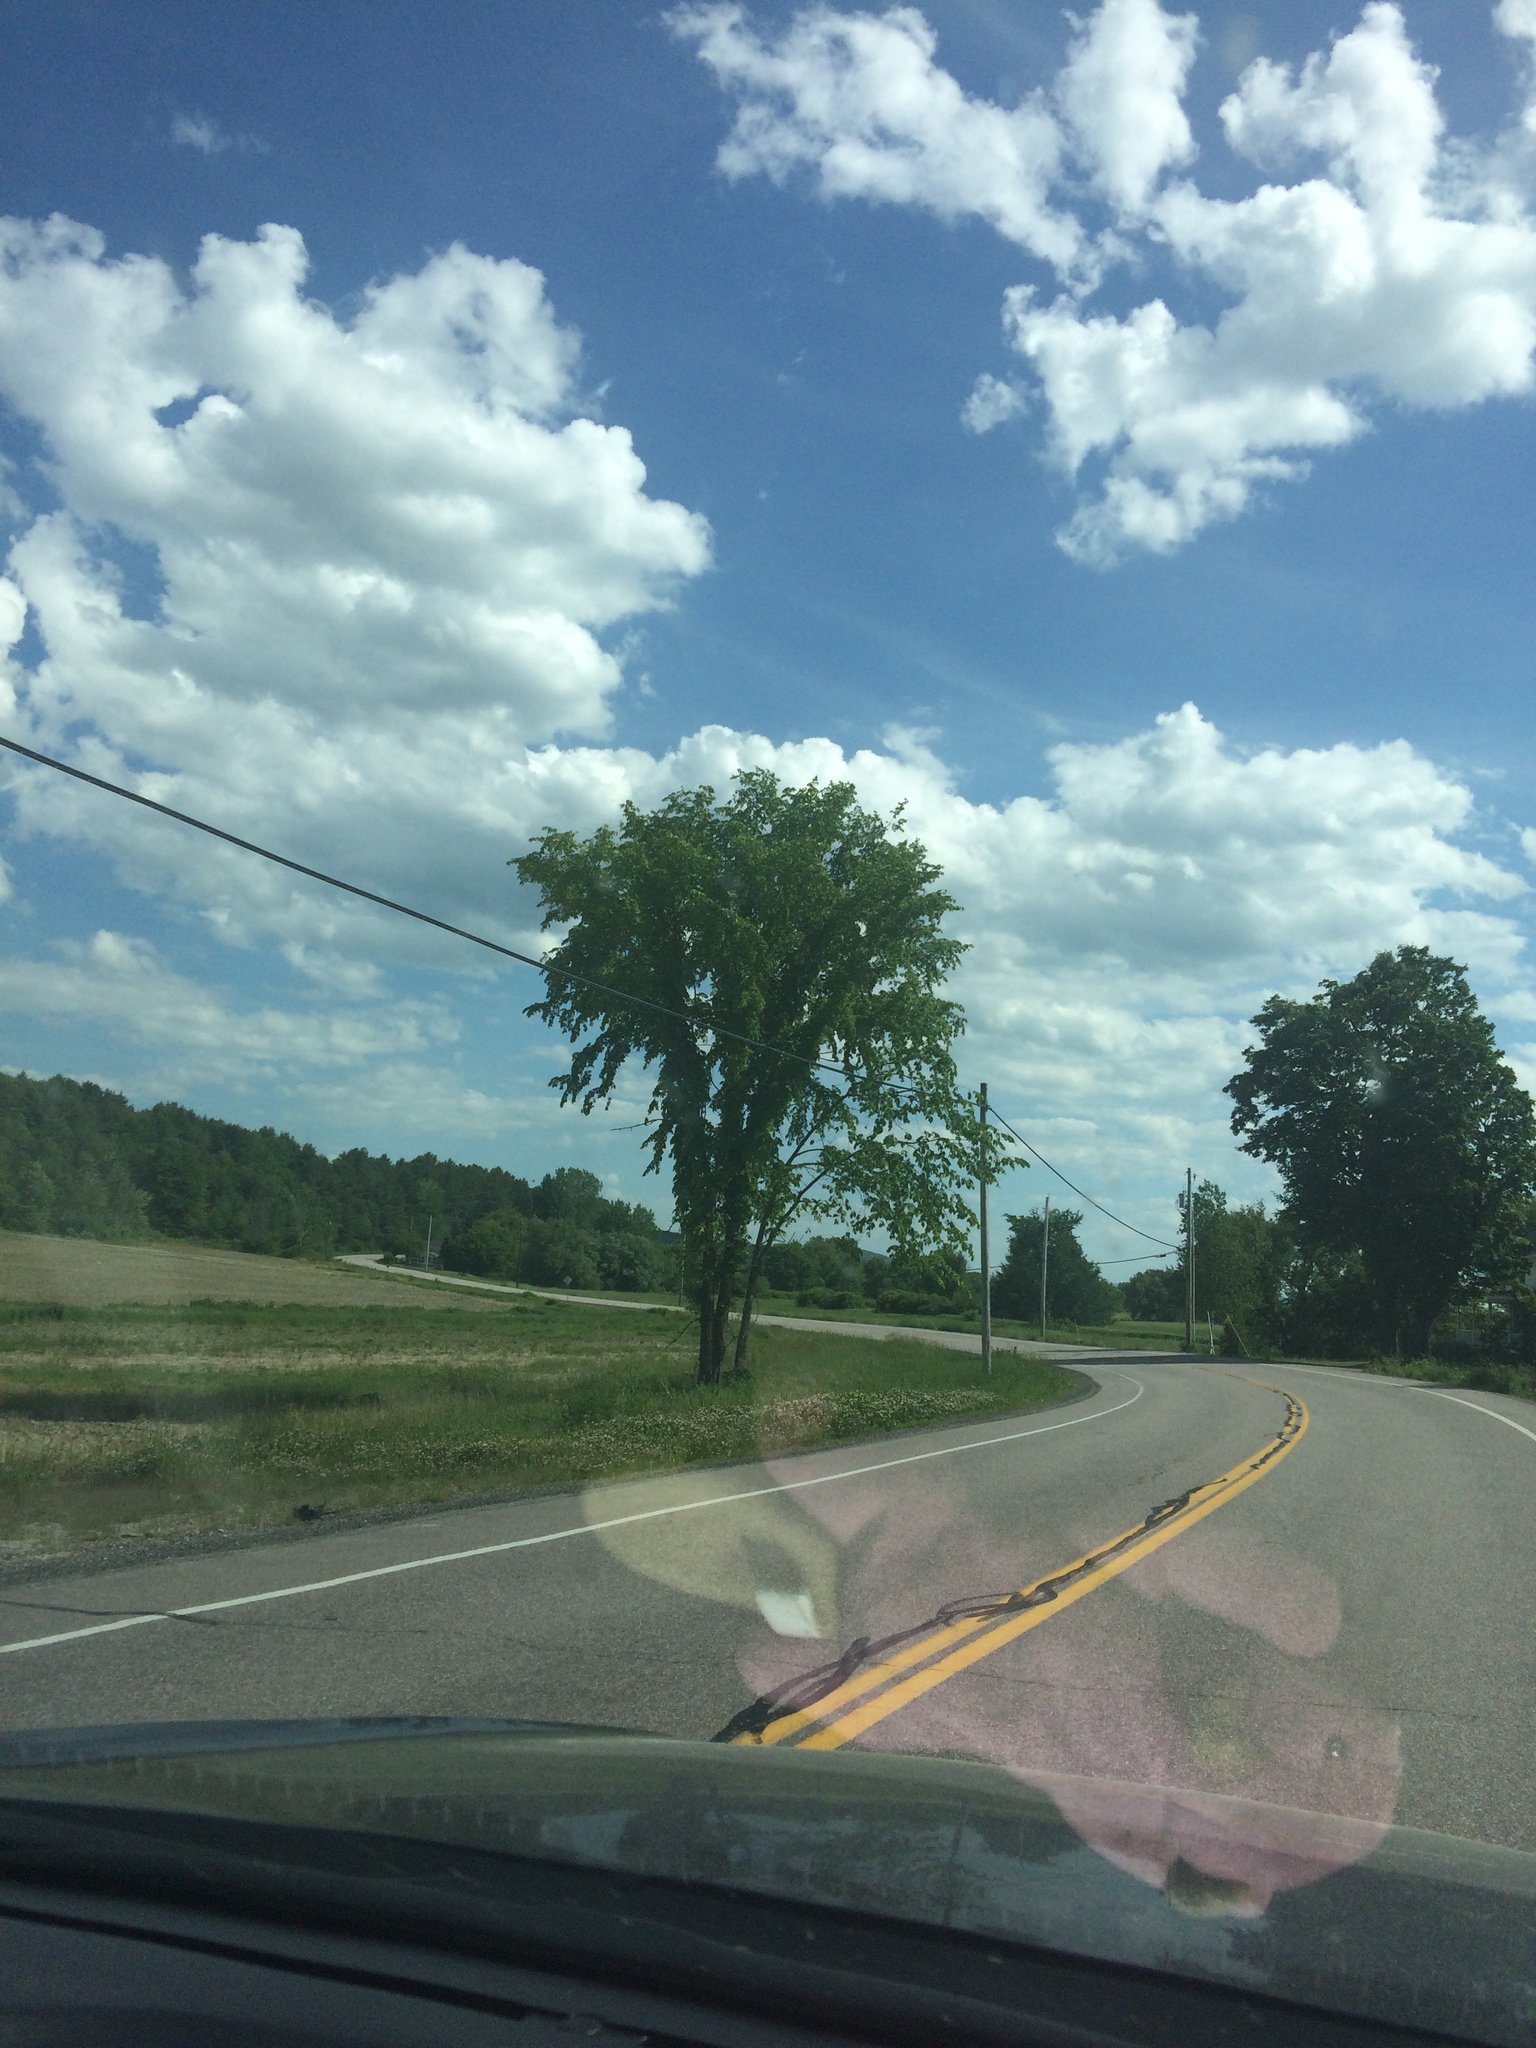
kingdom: Plantae
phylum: Tracheophyta
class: Magnoliopsida
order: Rosales
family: Ulmaceae
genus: Ulmus
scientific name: Ulmus americana
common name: American elm
